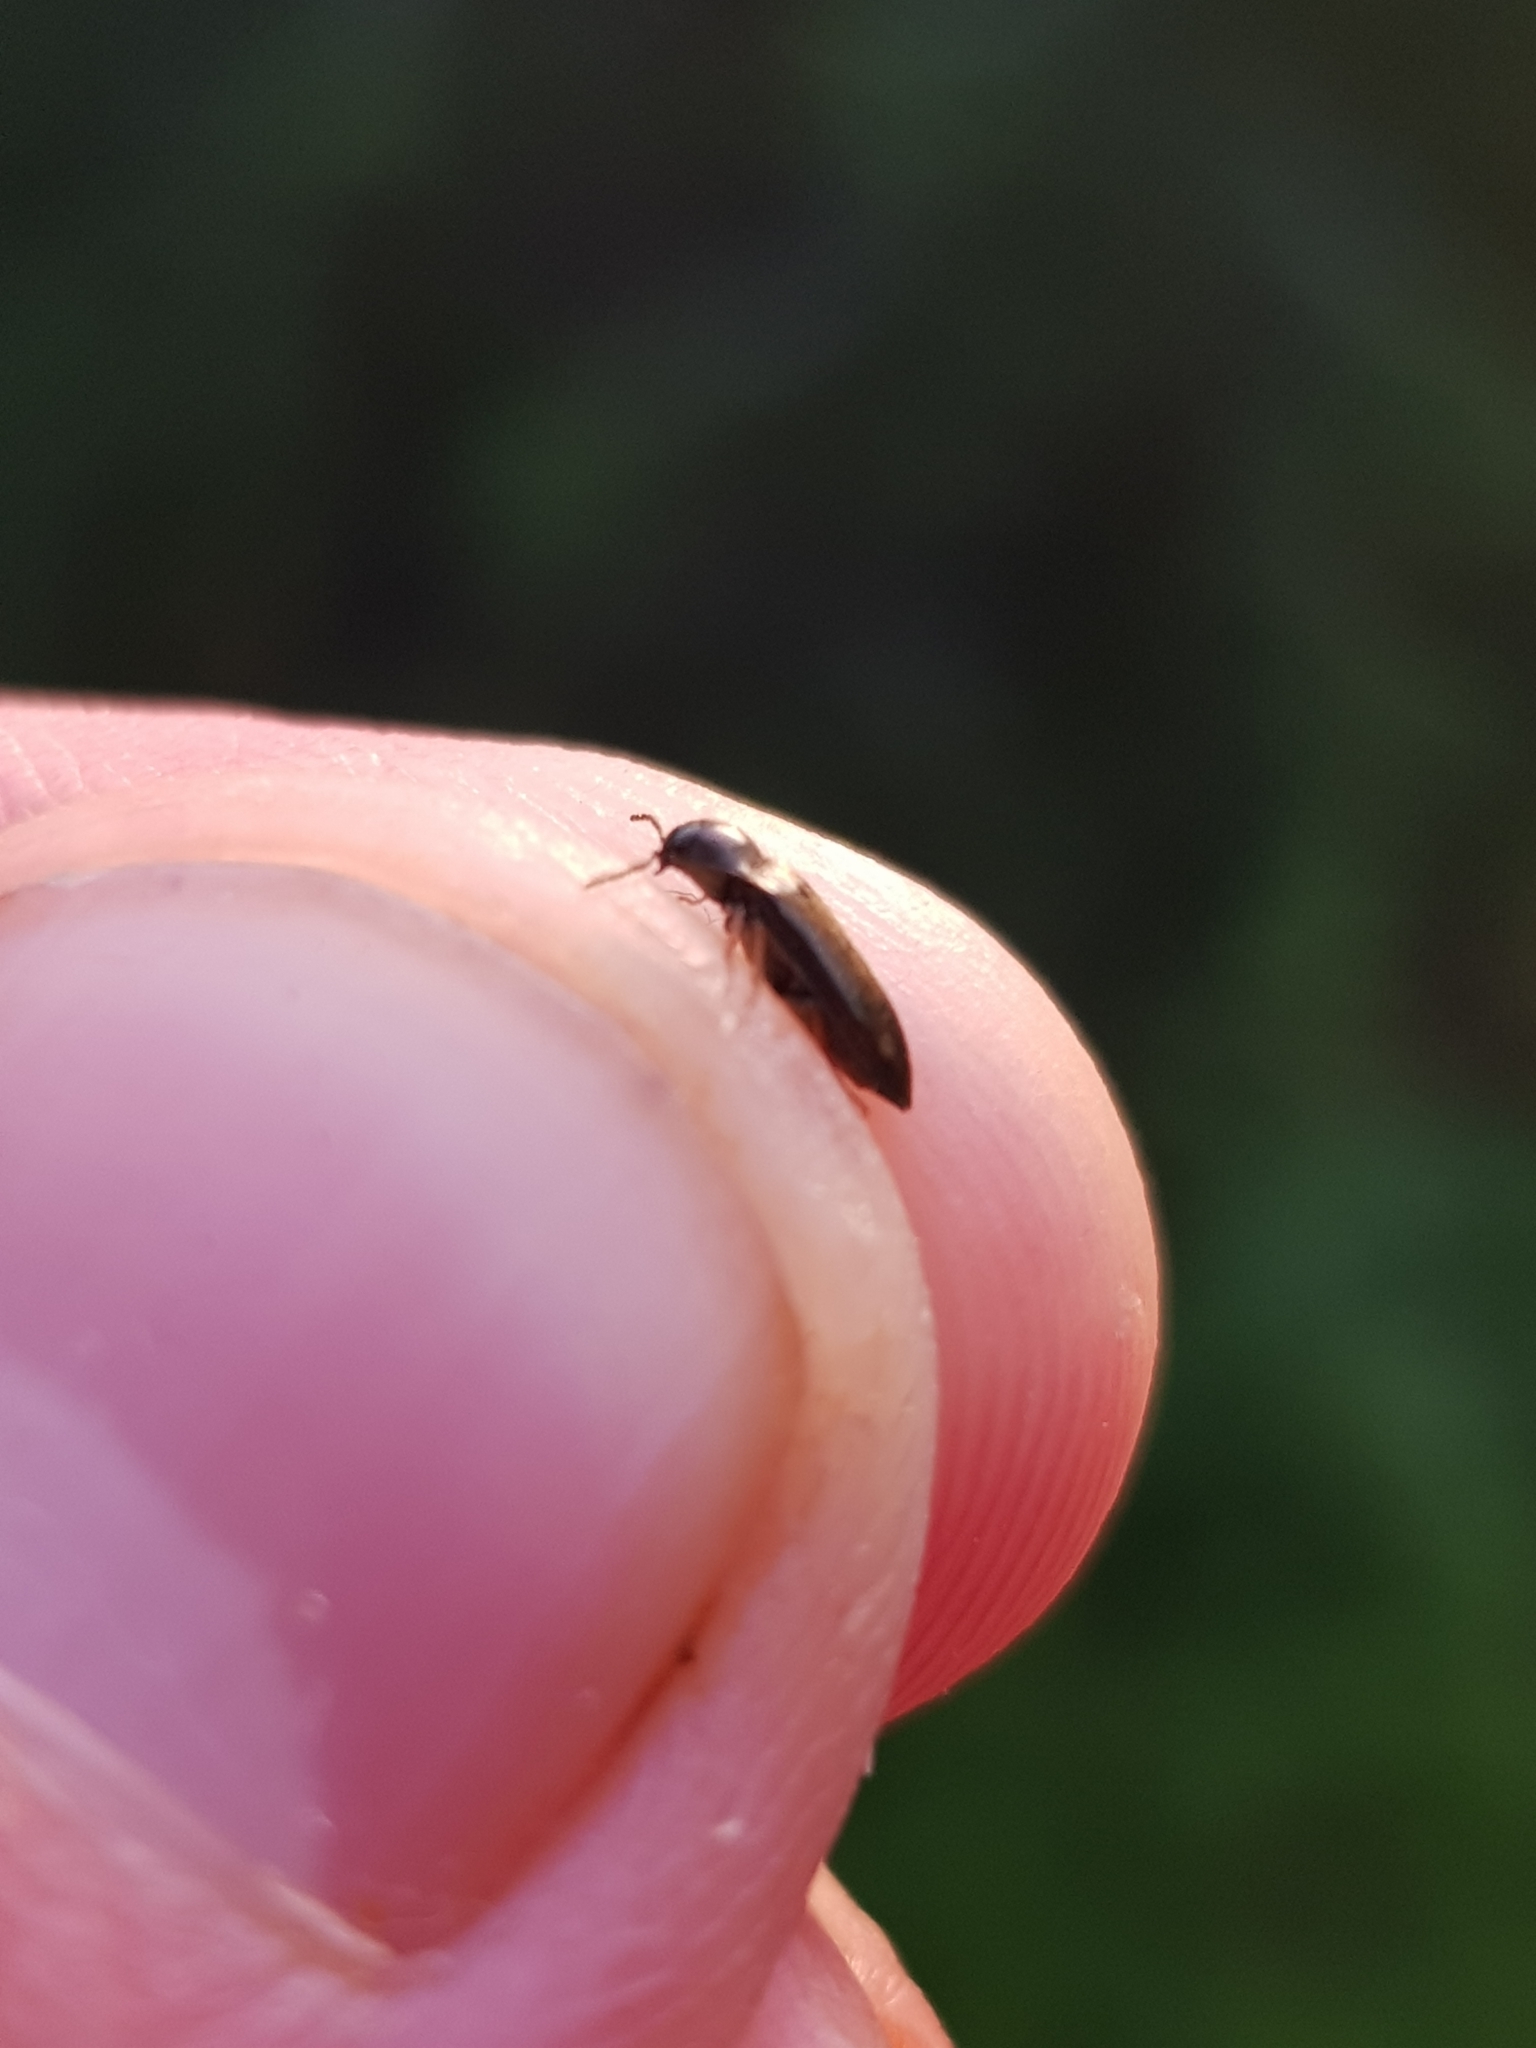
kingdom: Animalia
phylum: Arthropoda
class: Insecta
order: Coleoptera
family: Elateridae
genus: Eanus
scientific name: Eanus guttatus
